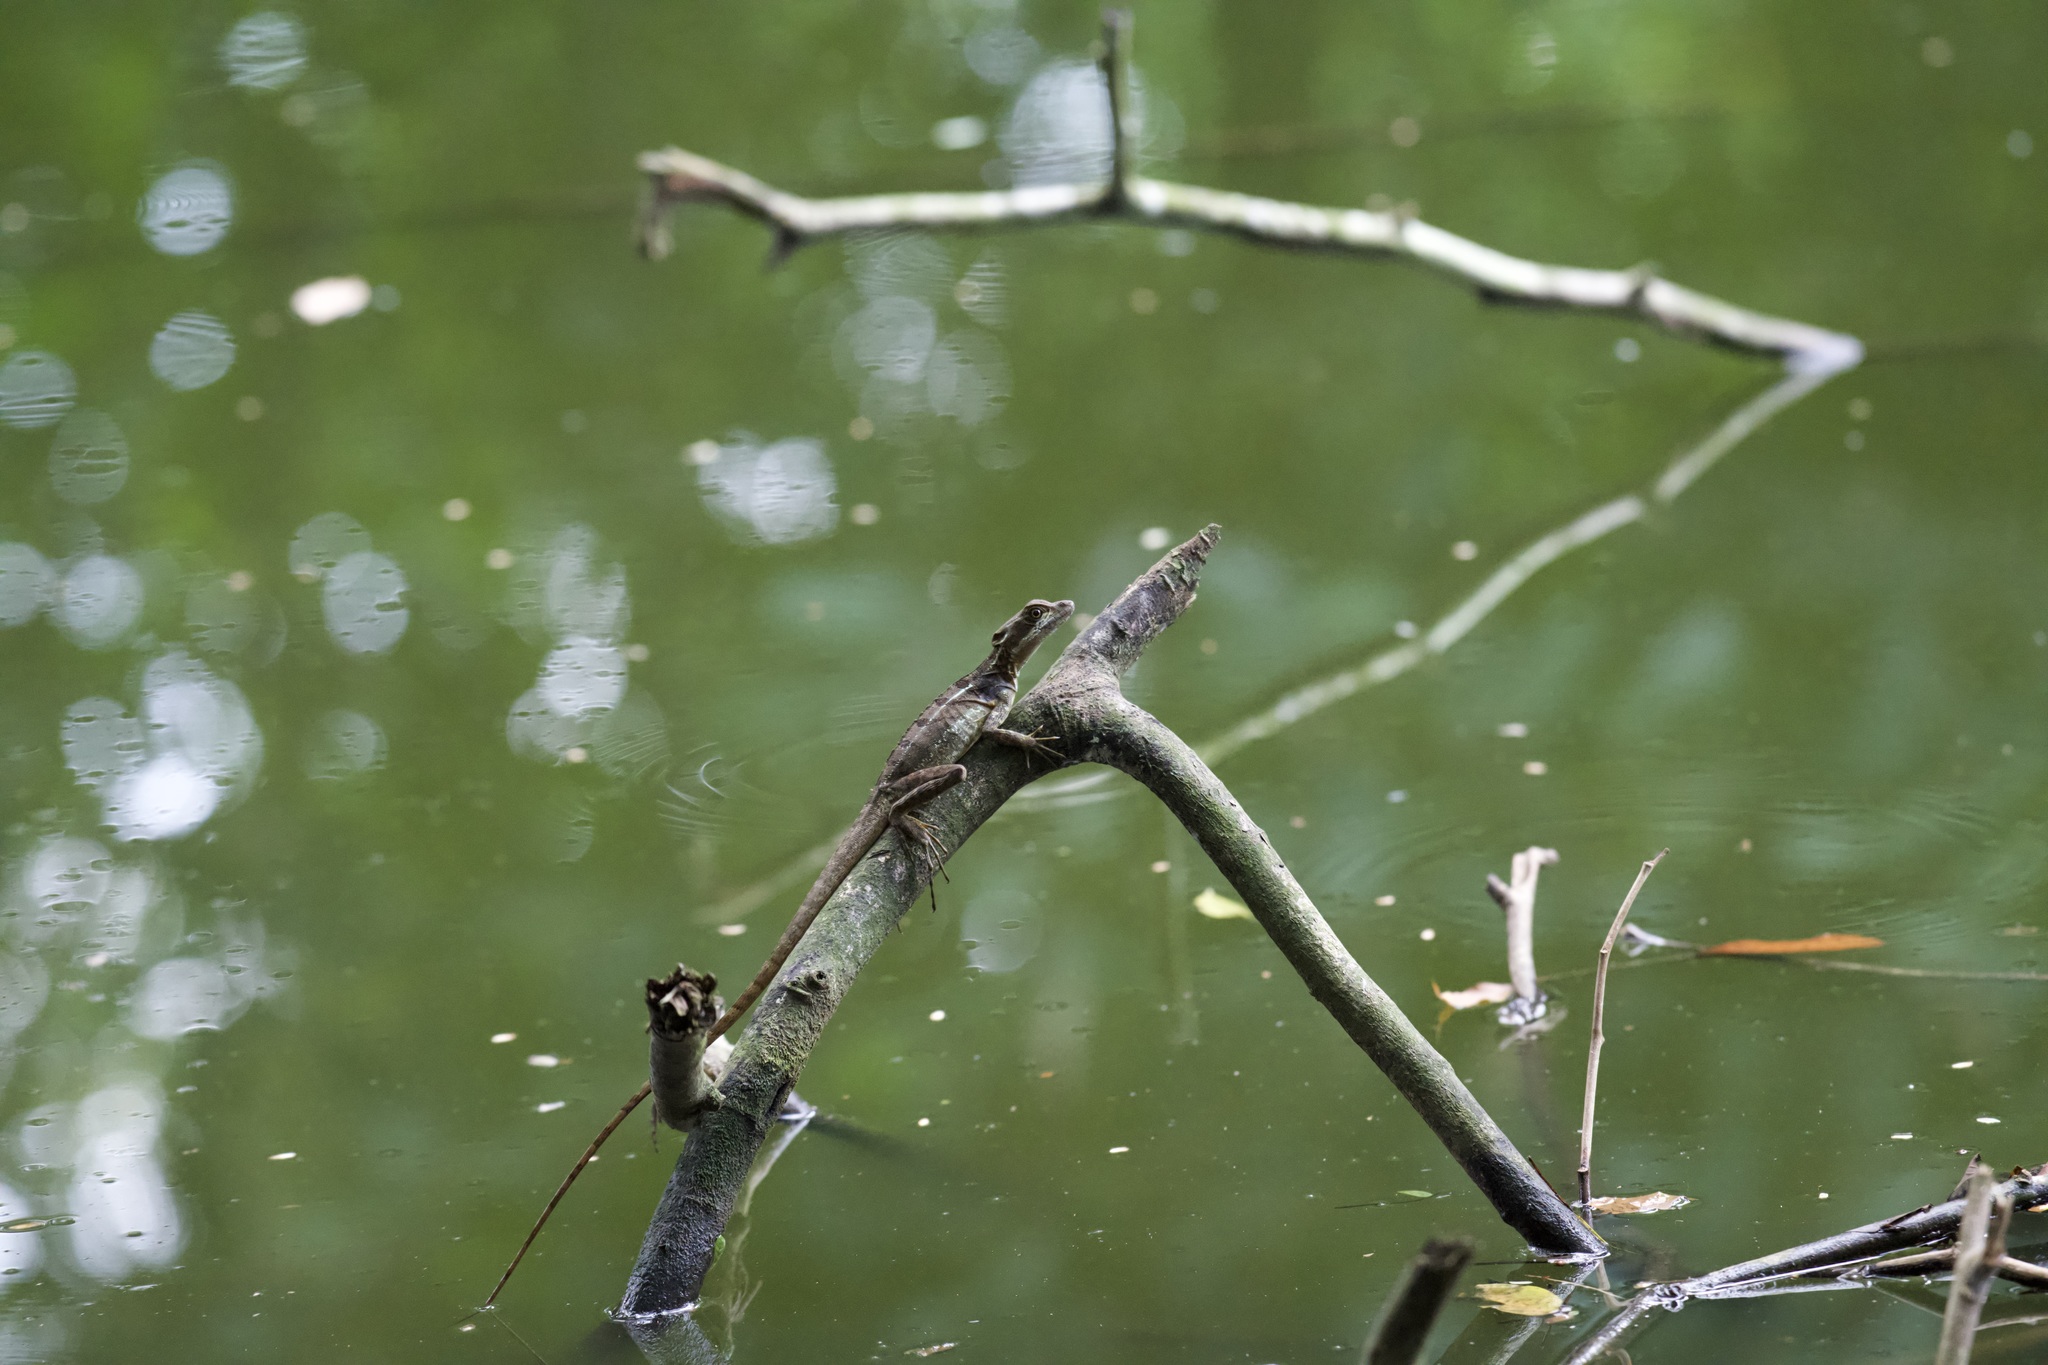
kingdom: Animalia
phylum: Chordata
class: Squamata
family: Corytophanidae
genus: Basiliscus
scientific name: Basiliscus basiliscus
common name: Common basilisk
